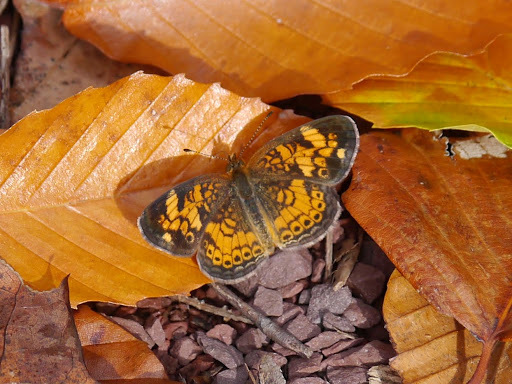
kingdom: Animalia
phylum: Arthropoda
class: Insecta
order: Lepidoptera
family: Nymphalidae
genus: Phyciodes
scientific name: Phyciodes tharos
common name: Pearl crescent
